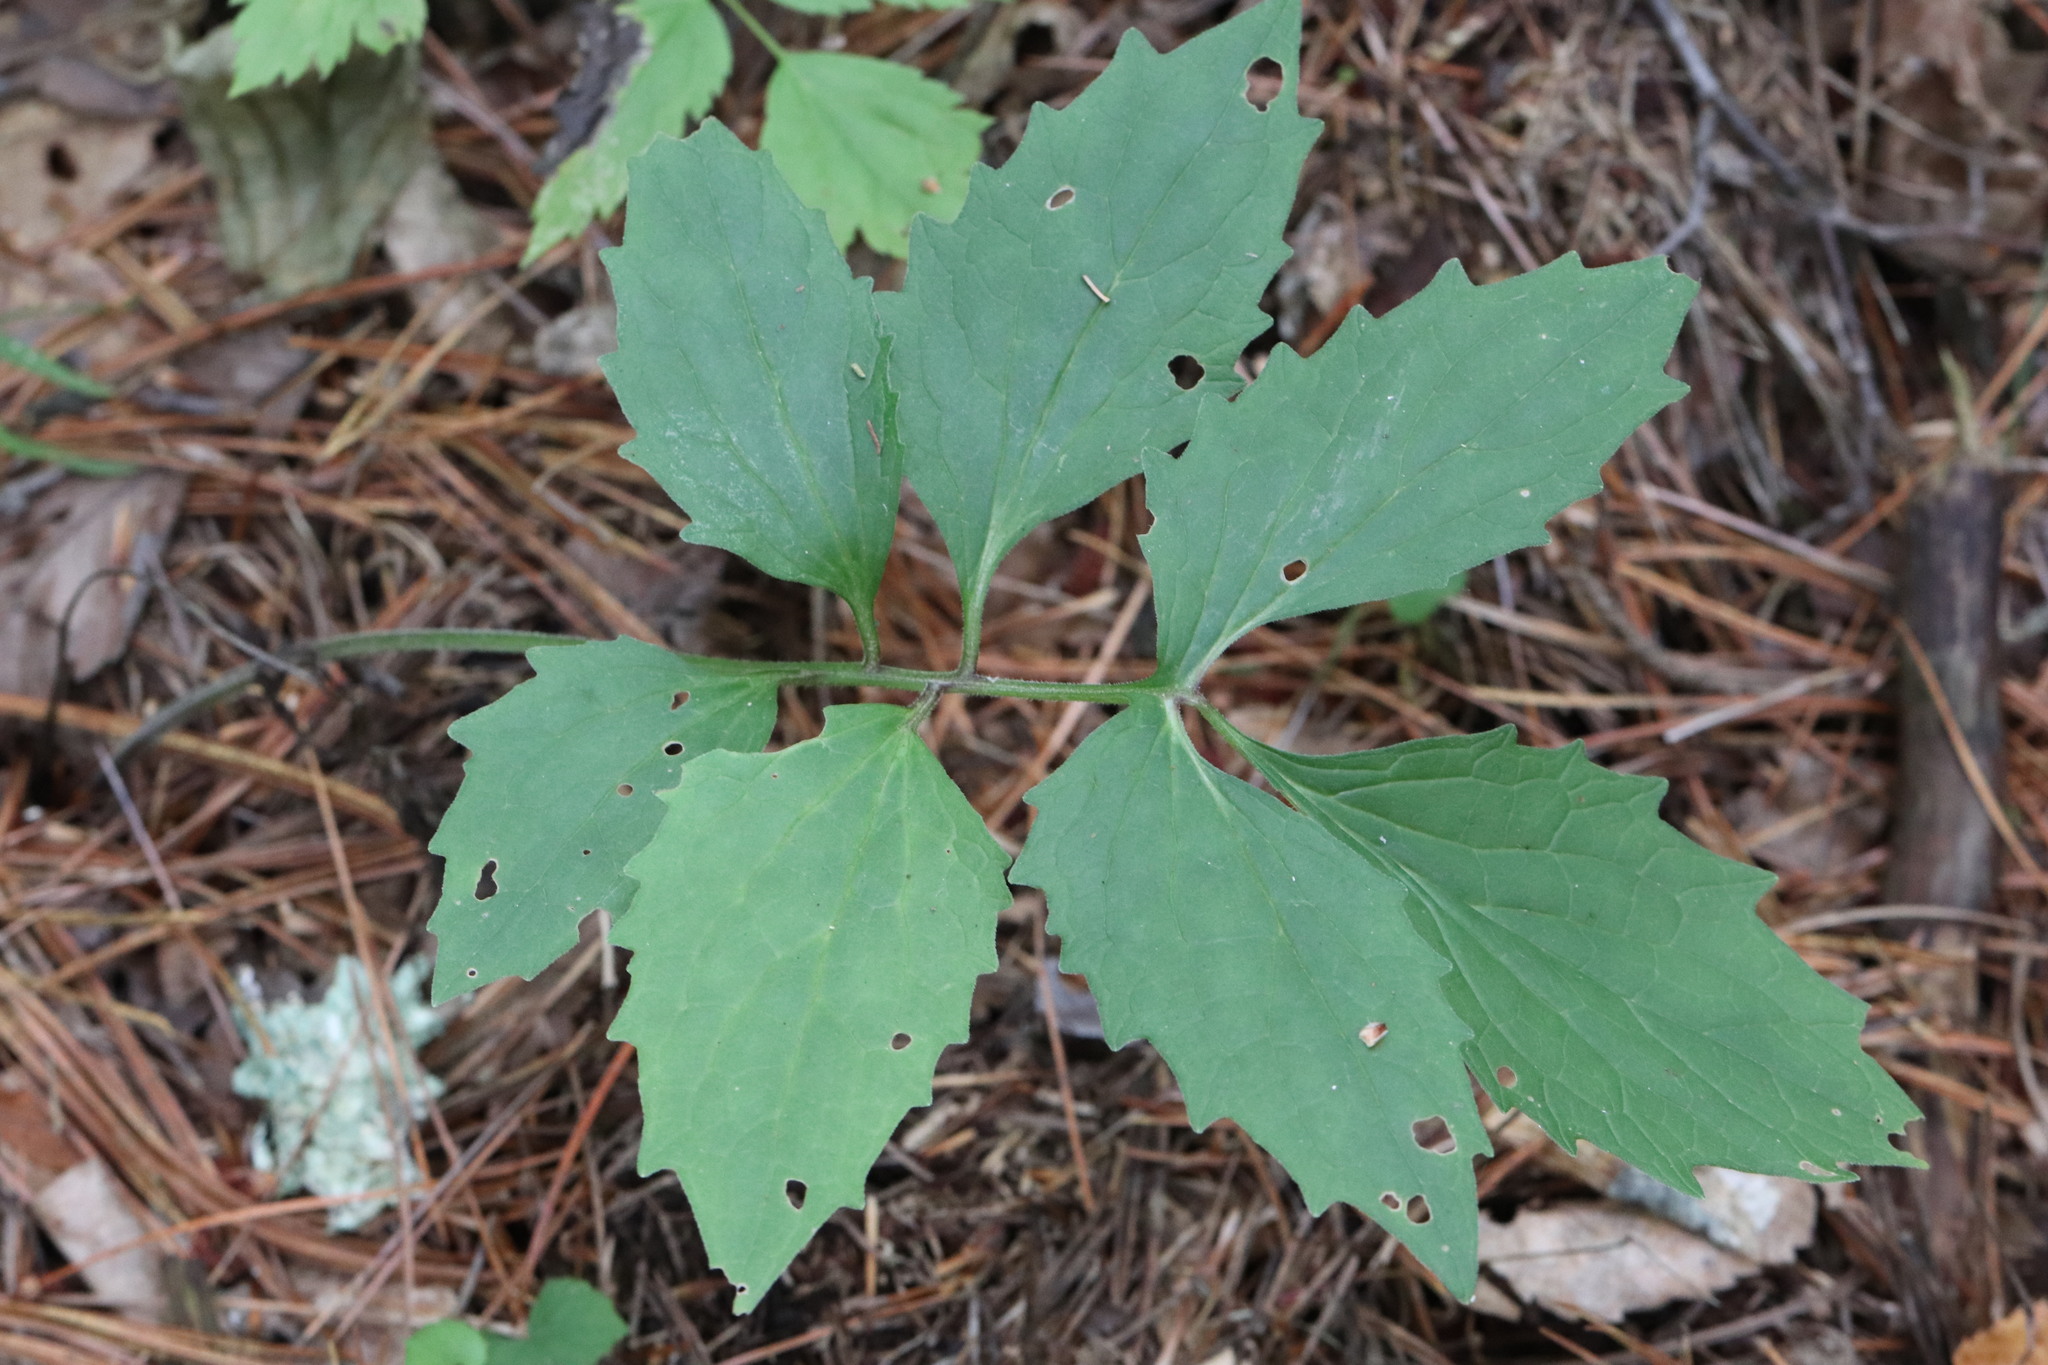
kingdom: Plantae
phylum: Tracheophyta
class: Magnoliopsida
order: Dipsacales
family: Caprifoliaceae
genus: Valeriana
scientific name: Valeriana fauriei
